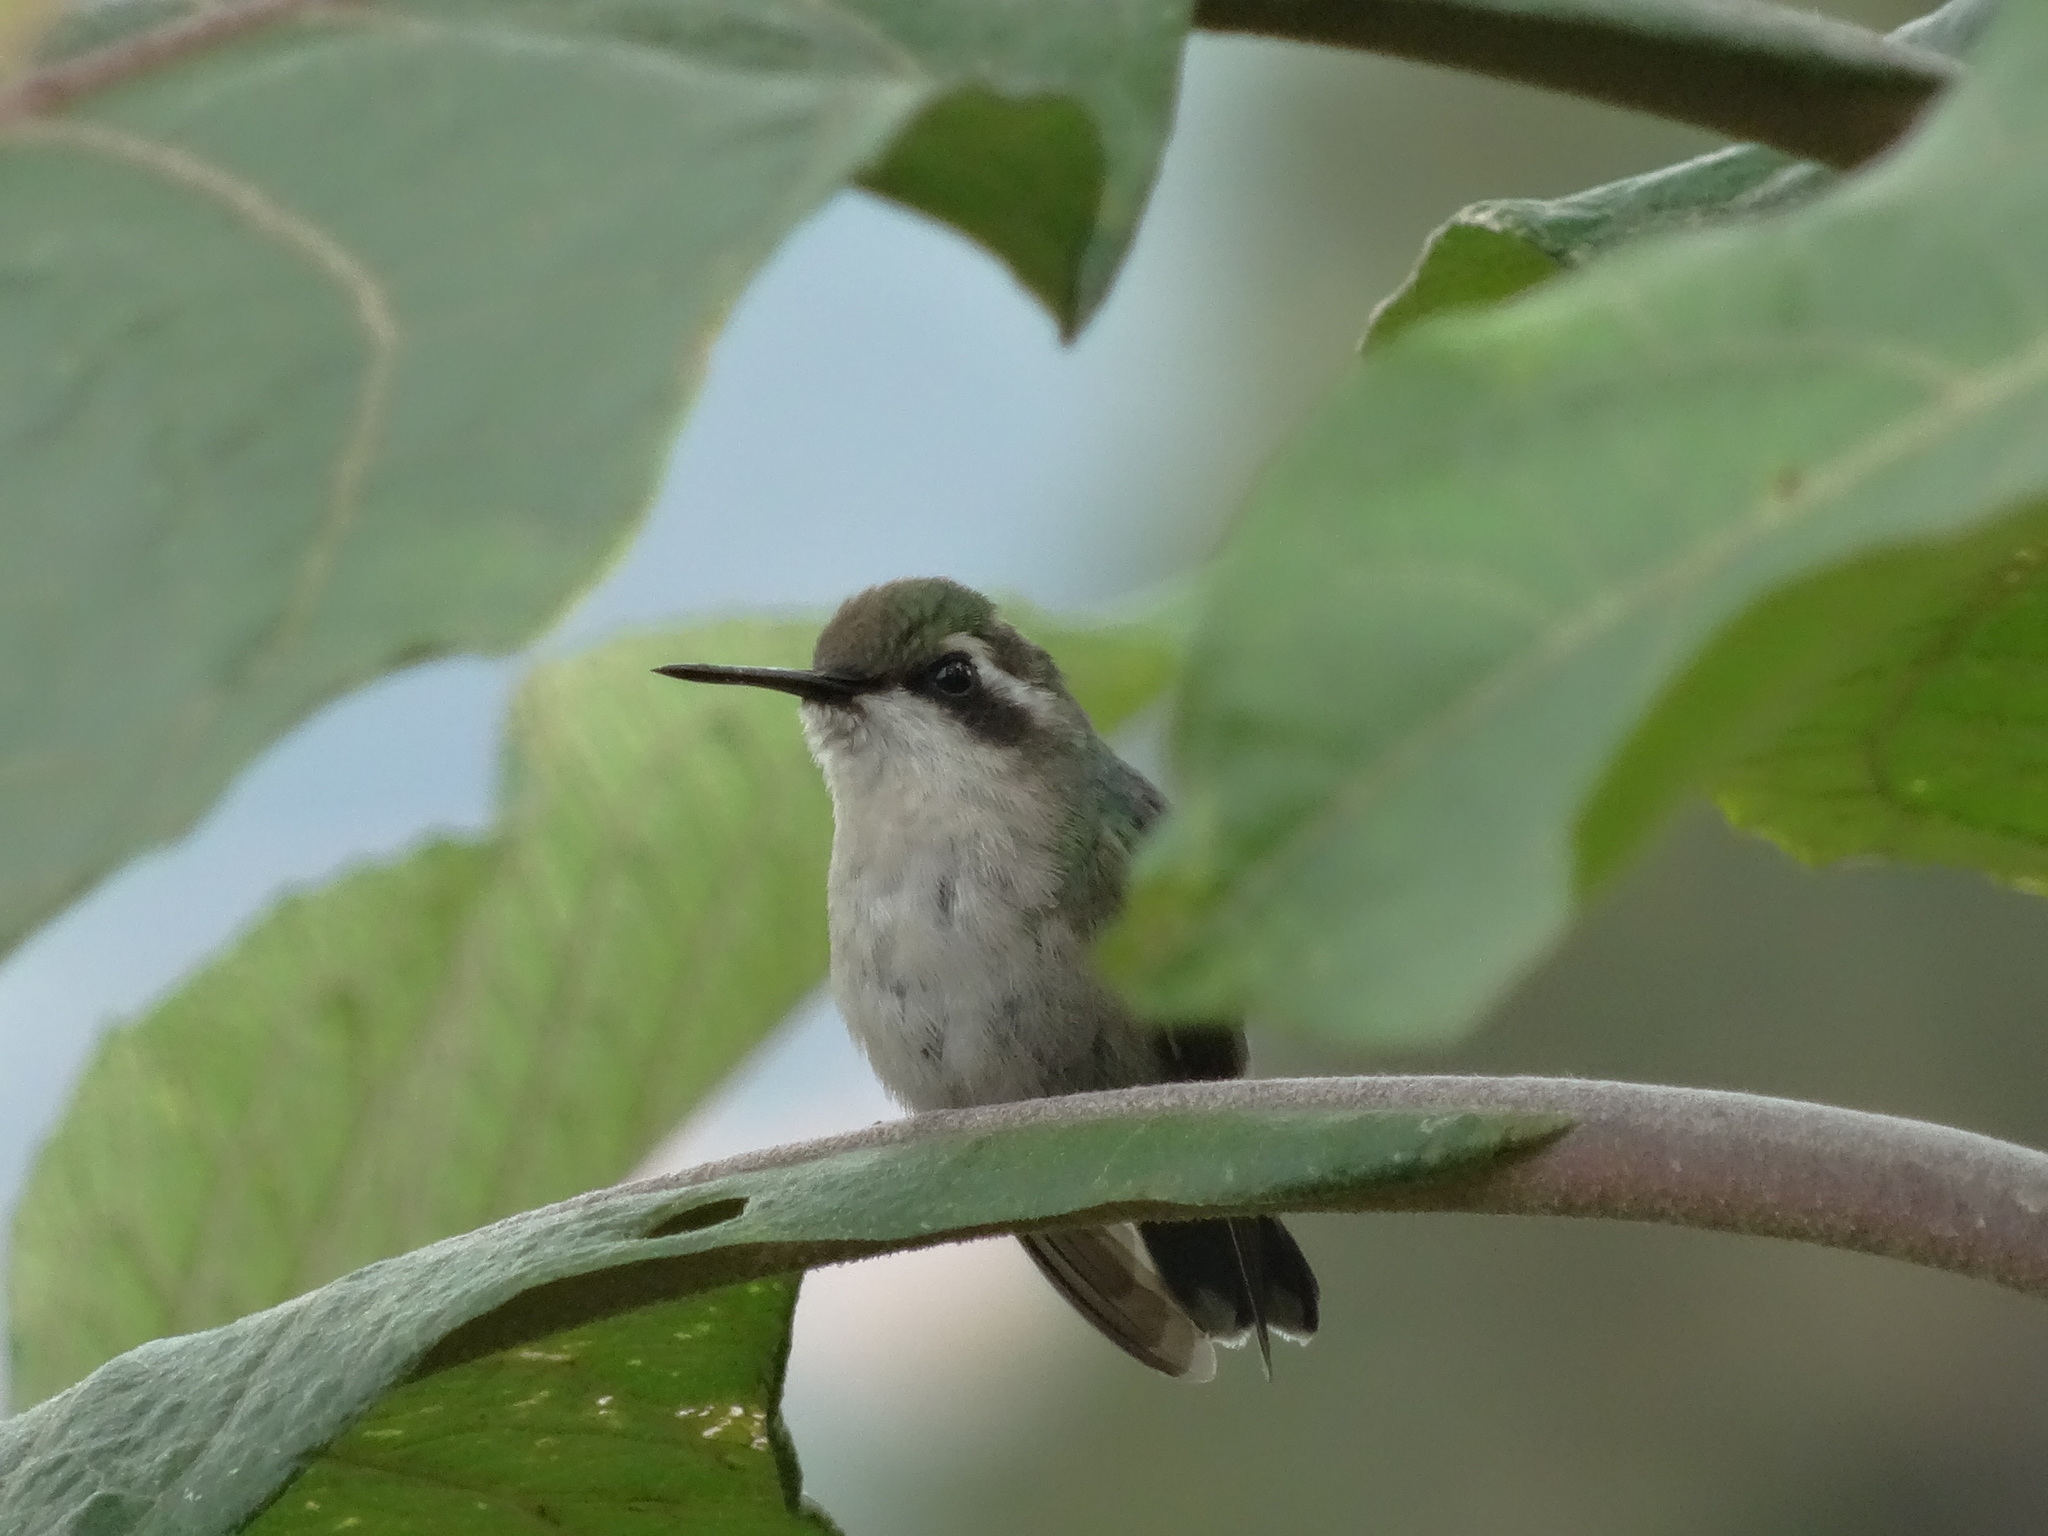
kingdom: Animalia
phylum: Chordata
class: Aves
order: Apodiformes
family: Trochilidae
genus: Chlorostilbon
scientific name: Chlorostilbon melanorhynchus
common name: Western emerald
